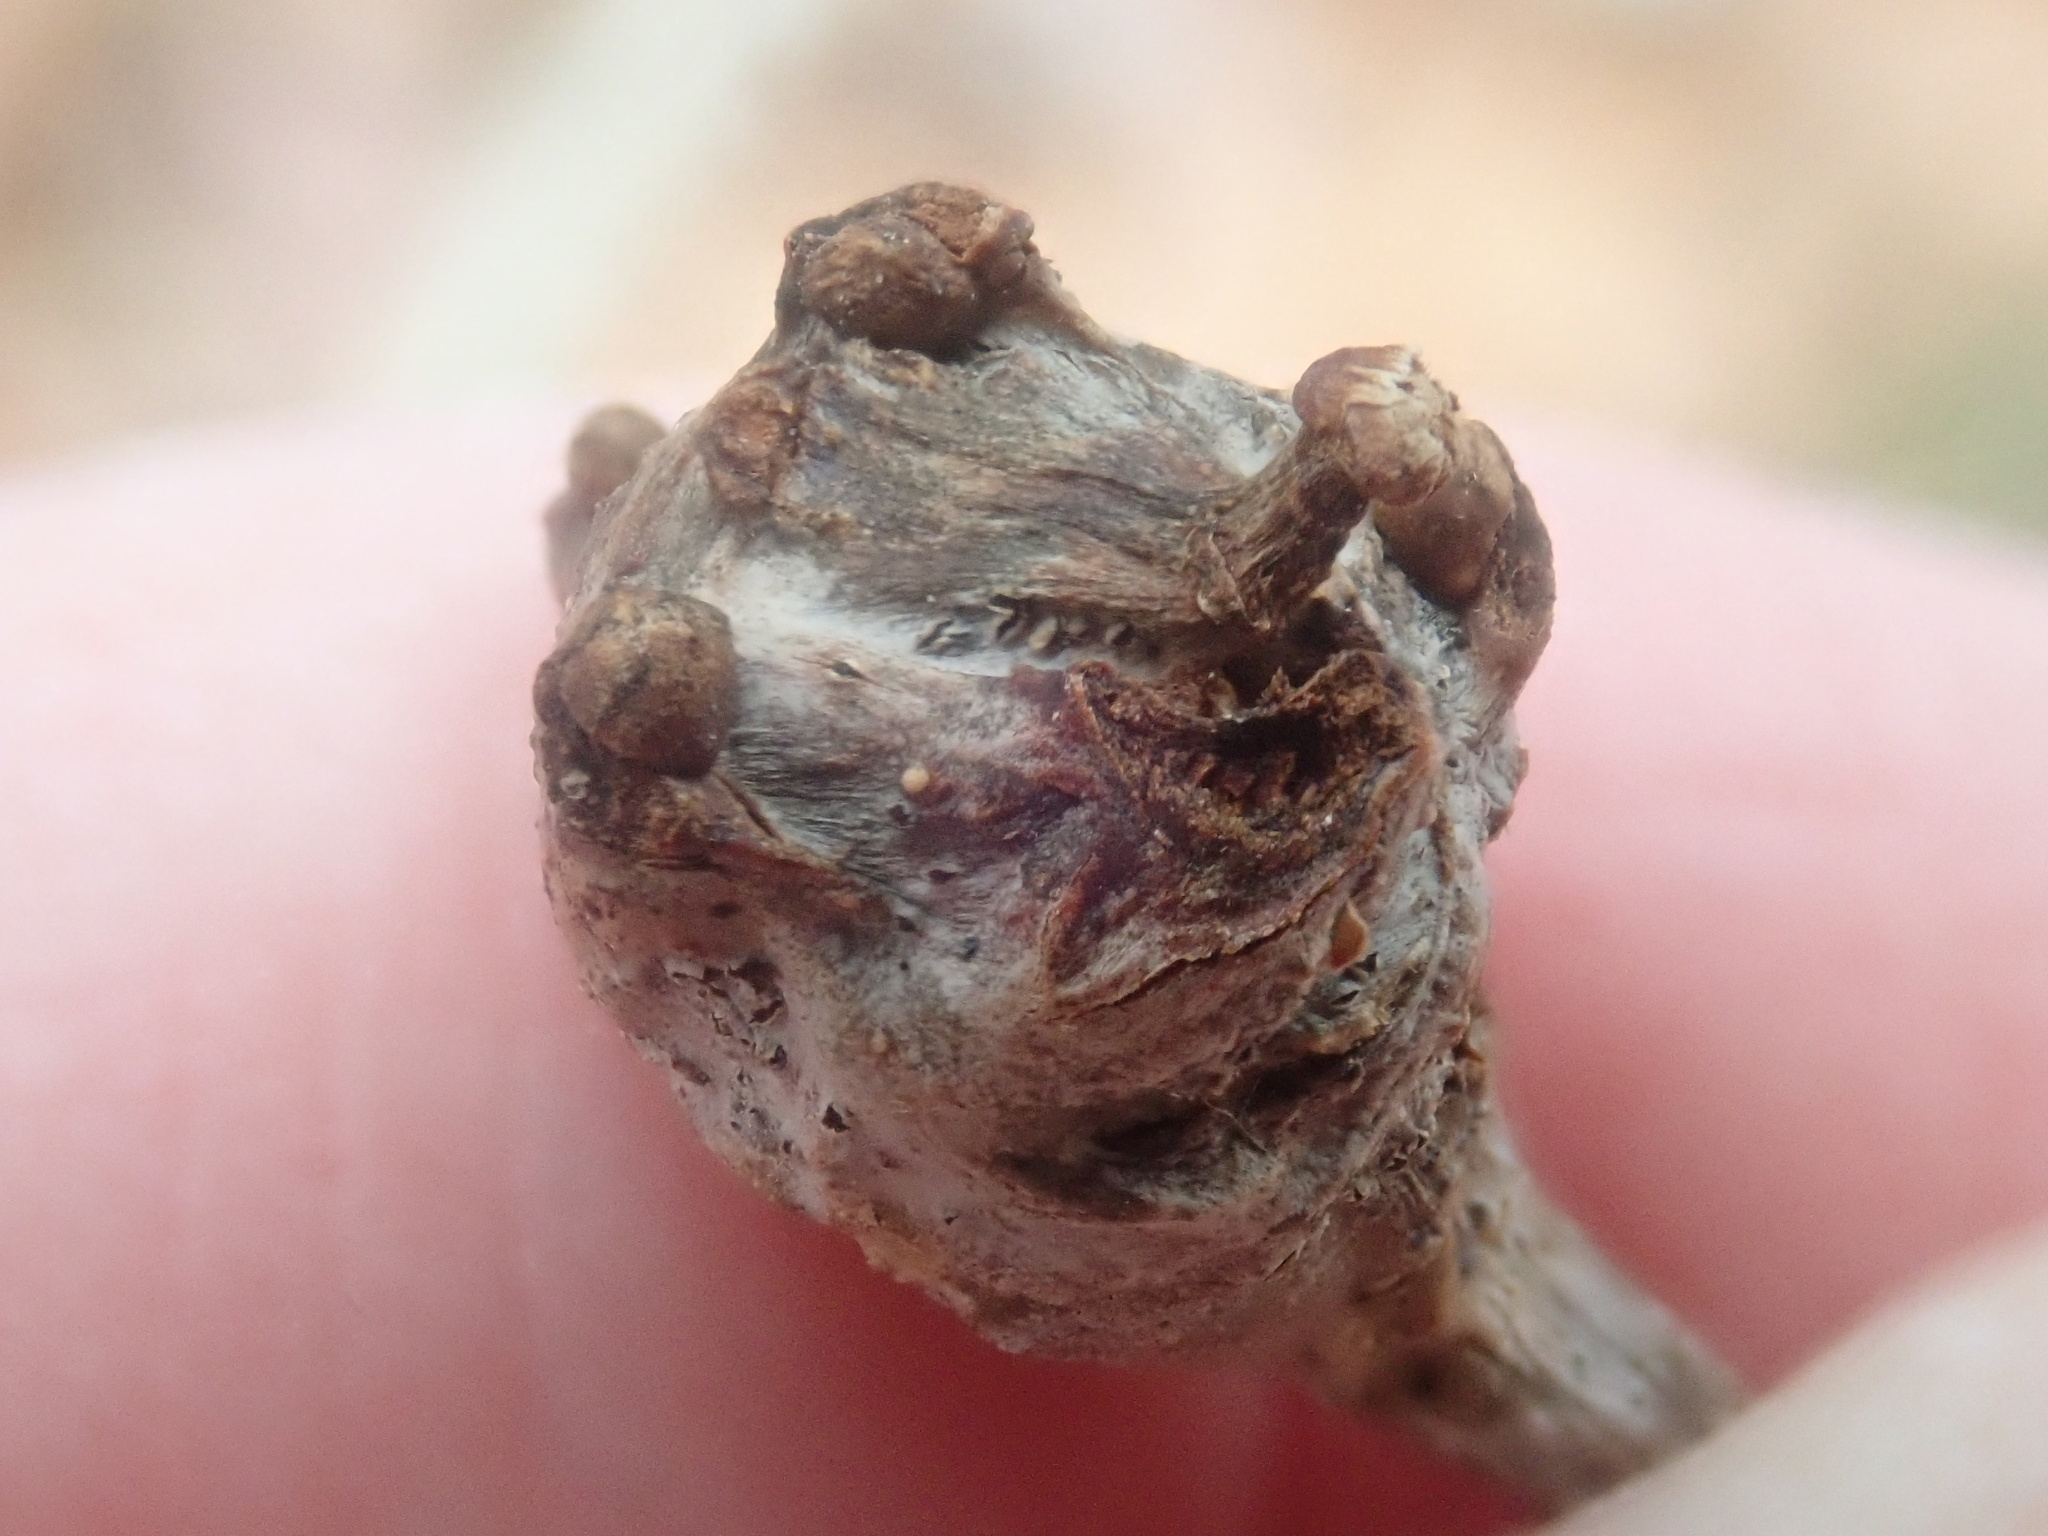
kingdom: Animalia
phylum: Arthropoda
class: Insecta
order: Hymenoptera
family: Cynipidae
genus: Callirhytis
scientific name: Callirhytis clavula
